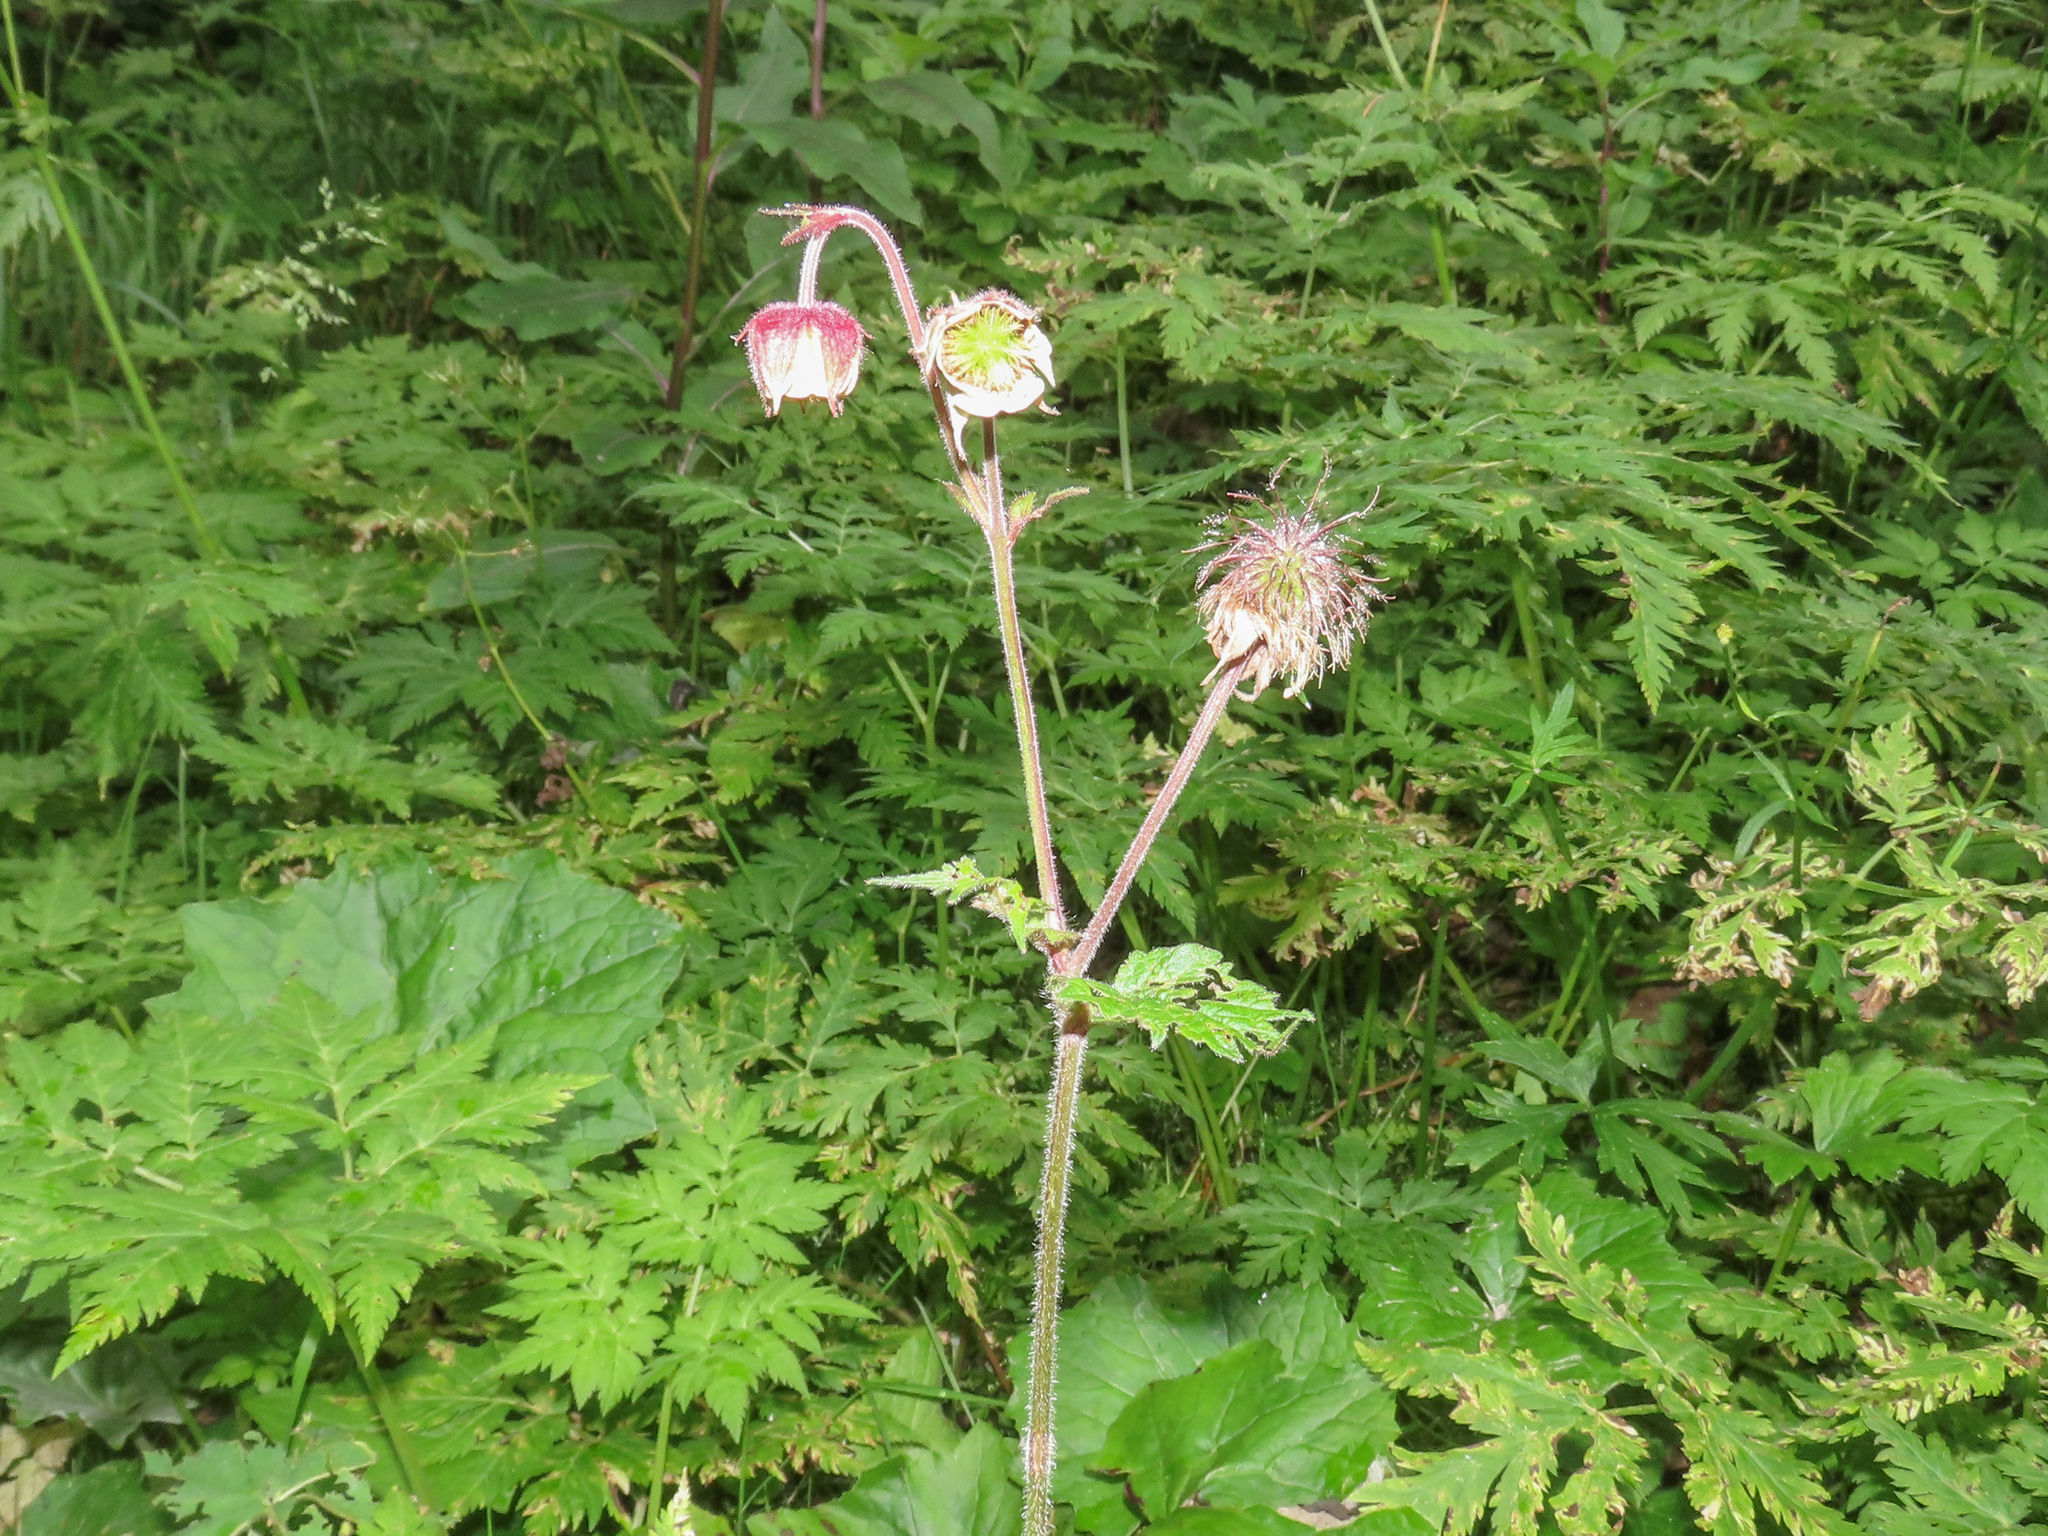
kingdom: Plantae
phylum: Tracheophyta
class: Magnoliopsida
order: Rosales
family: Rosaceae
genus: Geum
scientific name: Geum rivale
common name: Water avens
